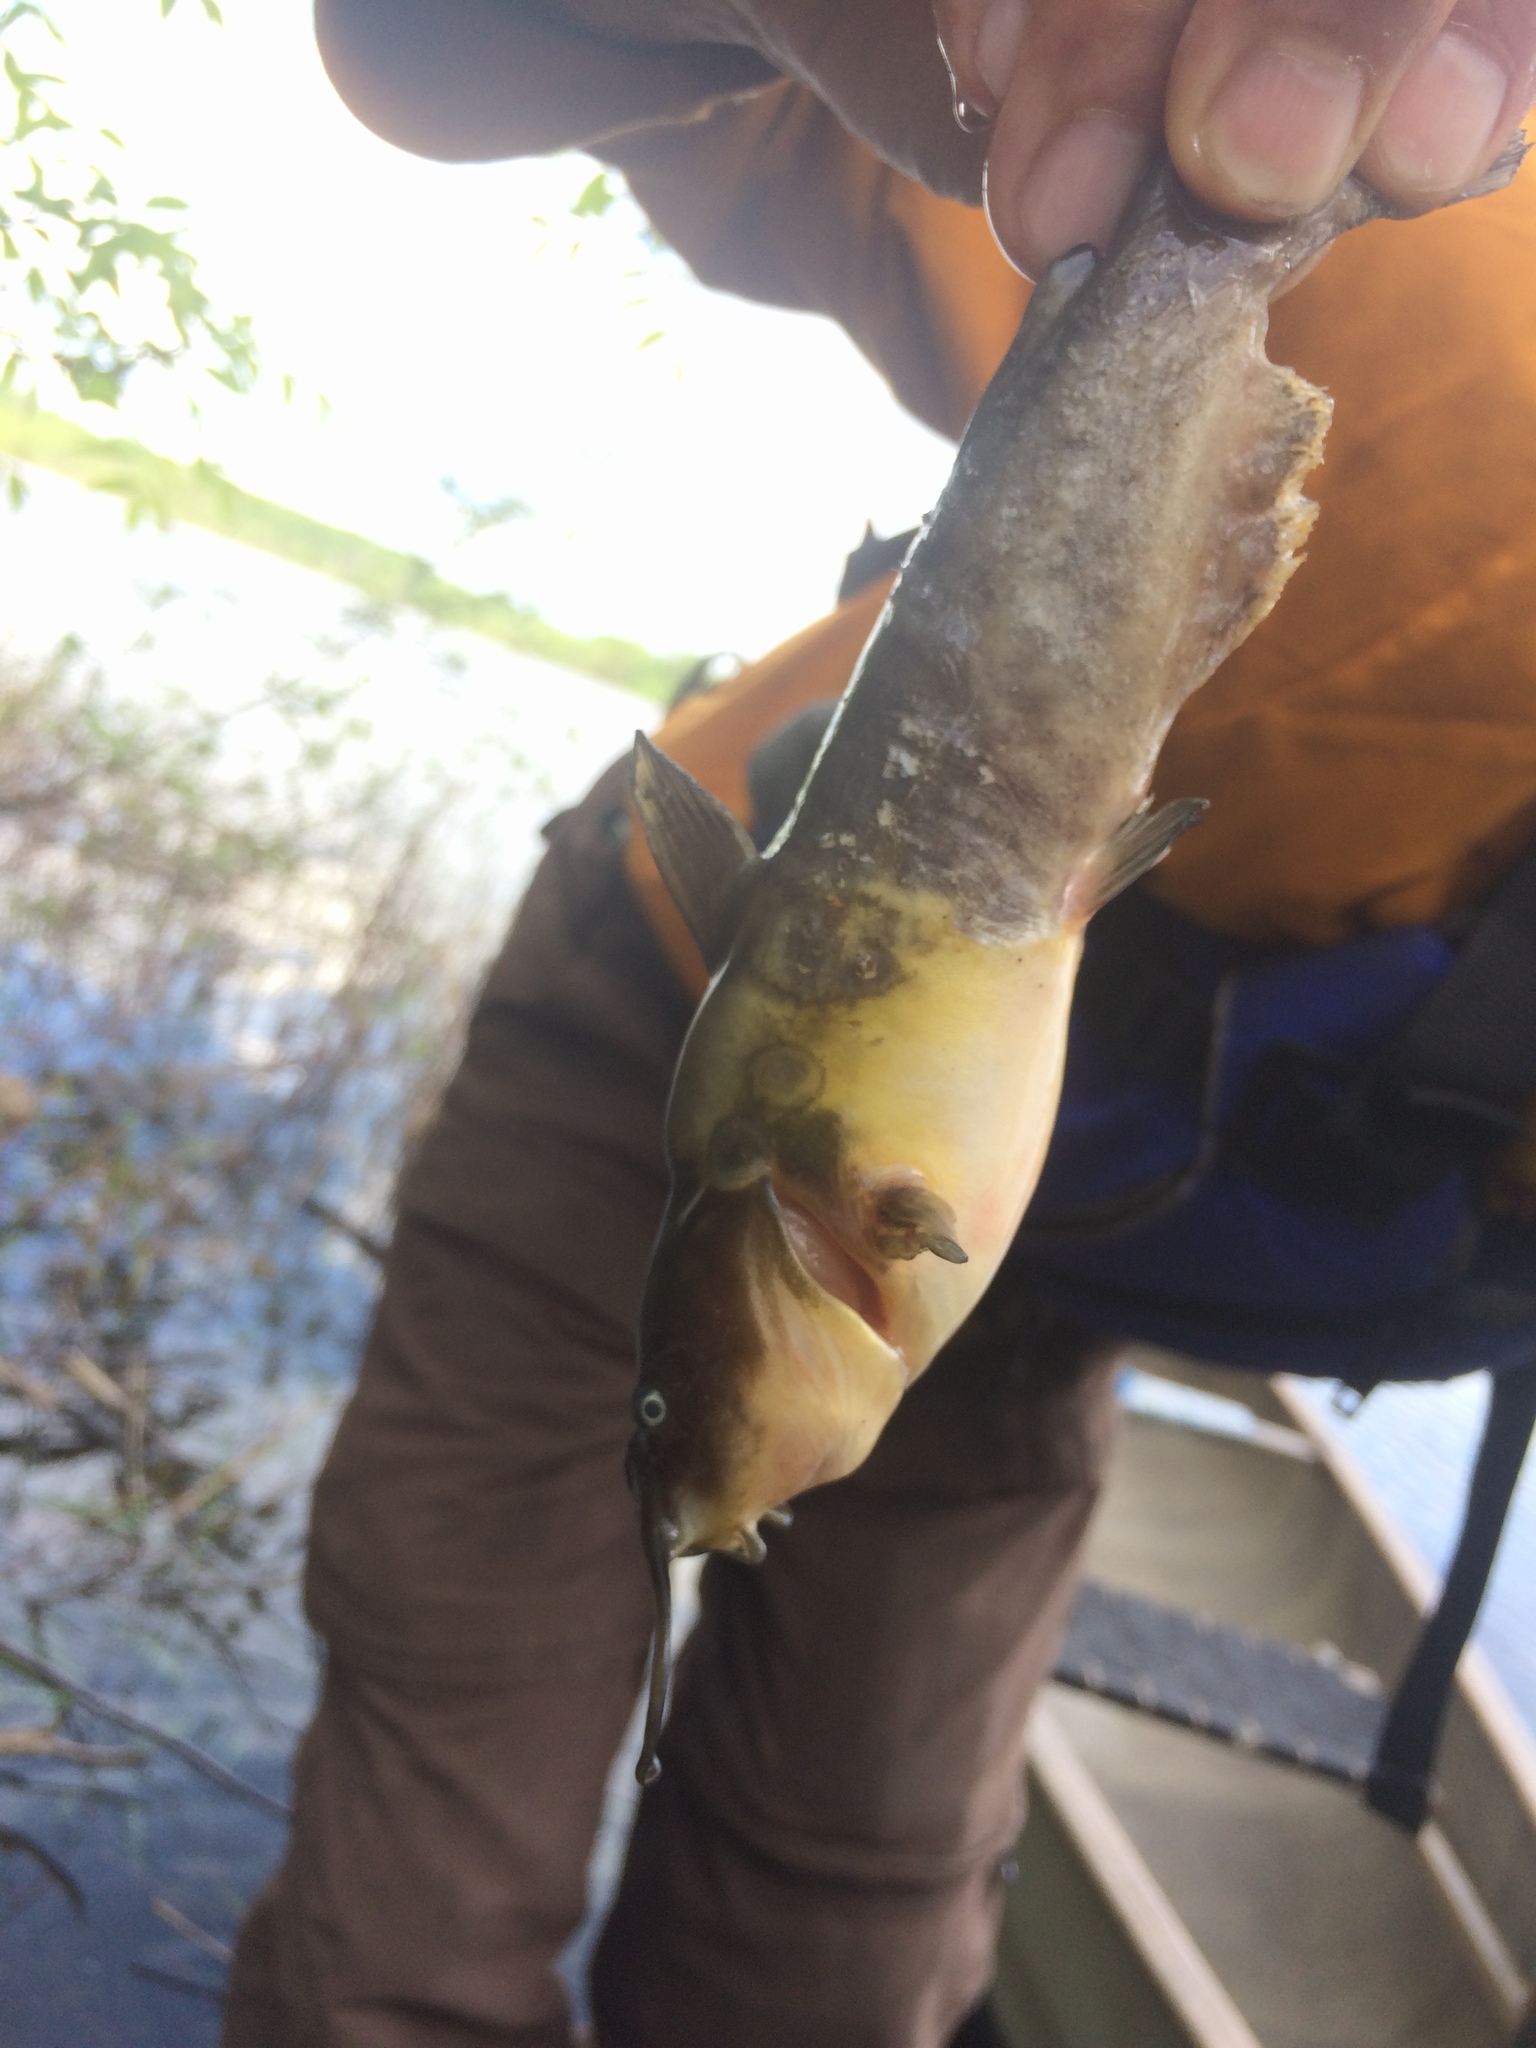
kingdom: Animalia
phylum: Chordata
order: Siluriformes
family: Ictaluridae
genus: Ameiurus
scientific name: Ameiurus nebulosus
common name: Brown bullhead
